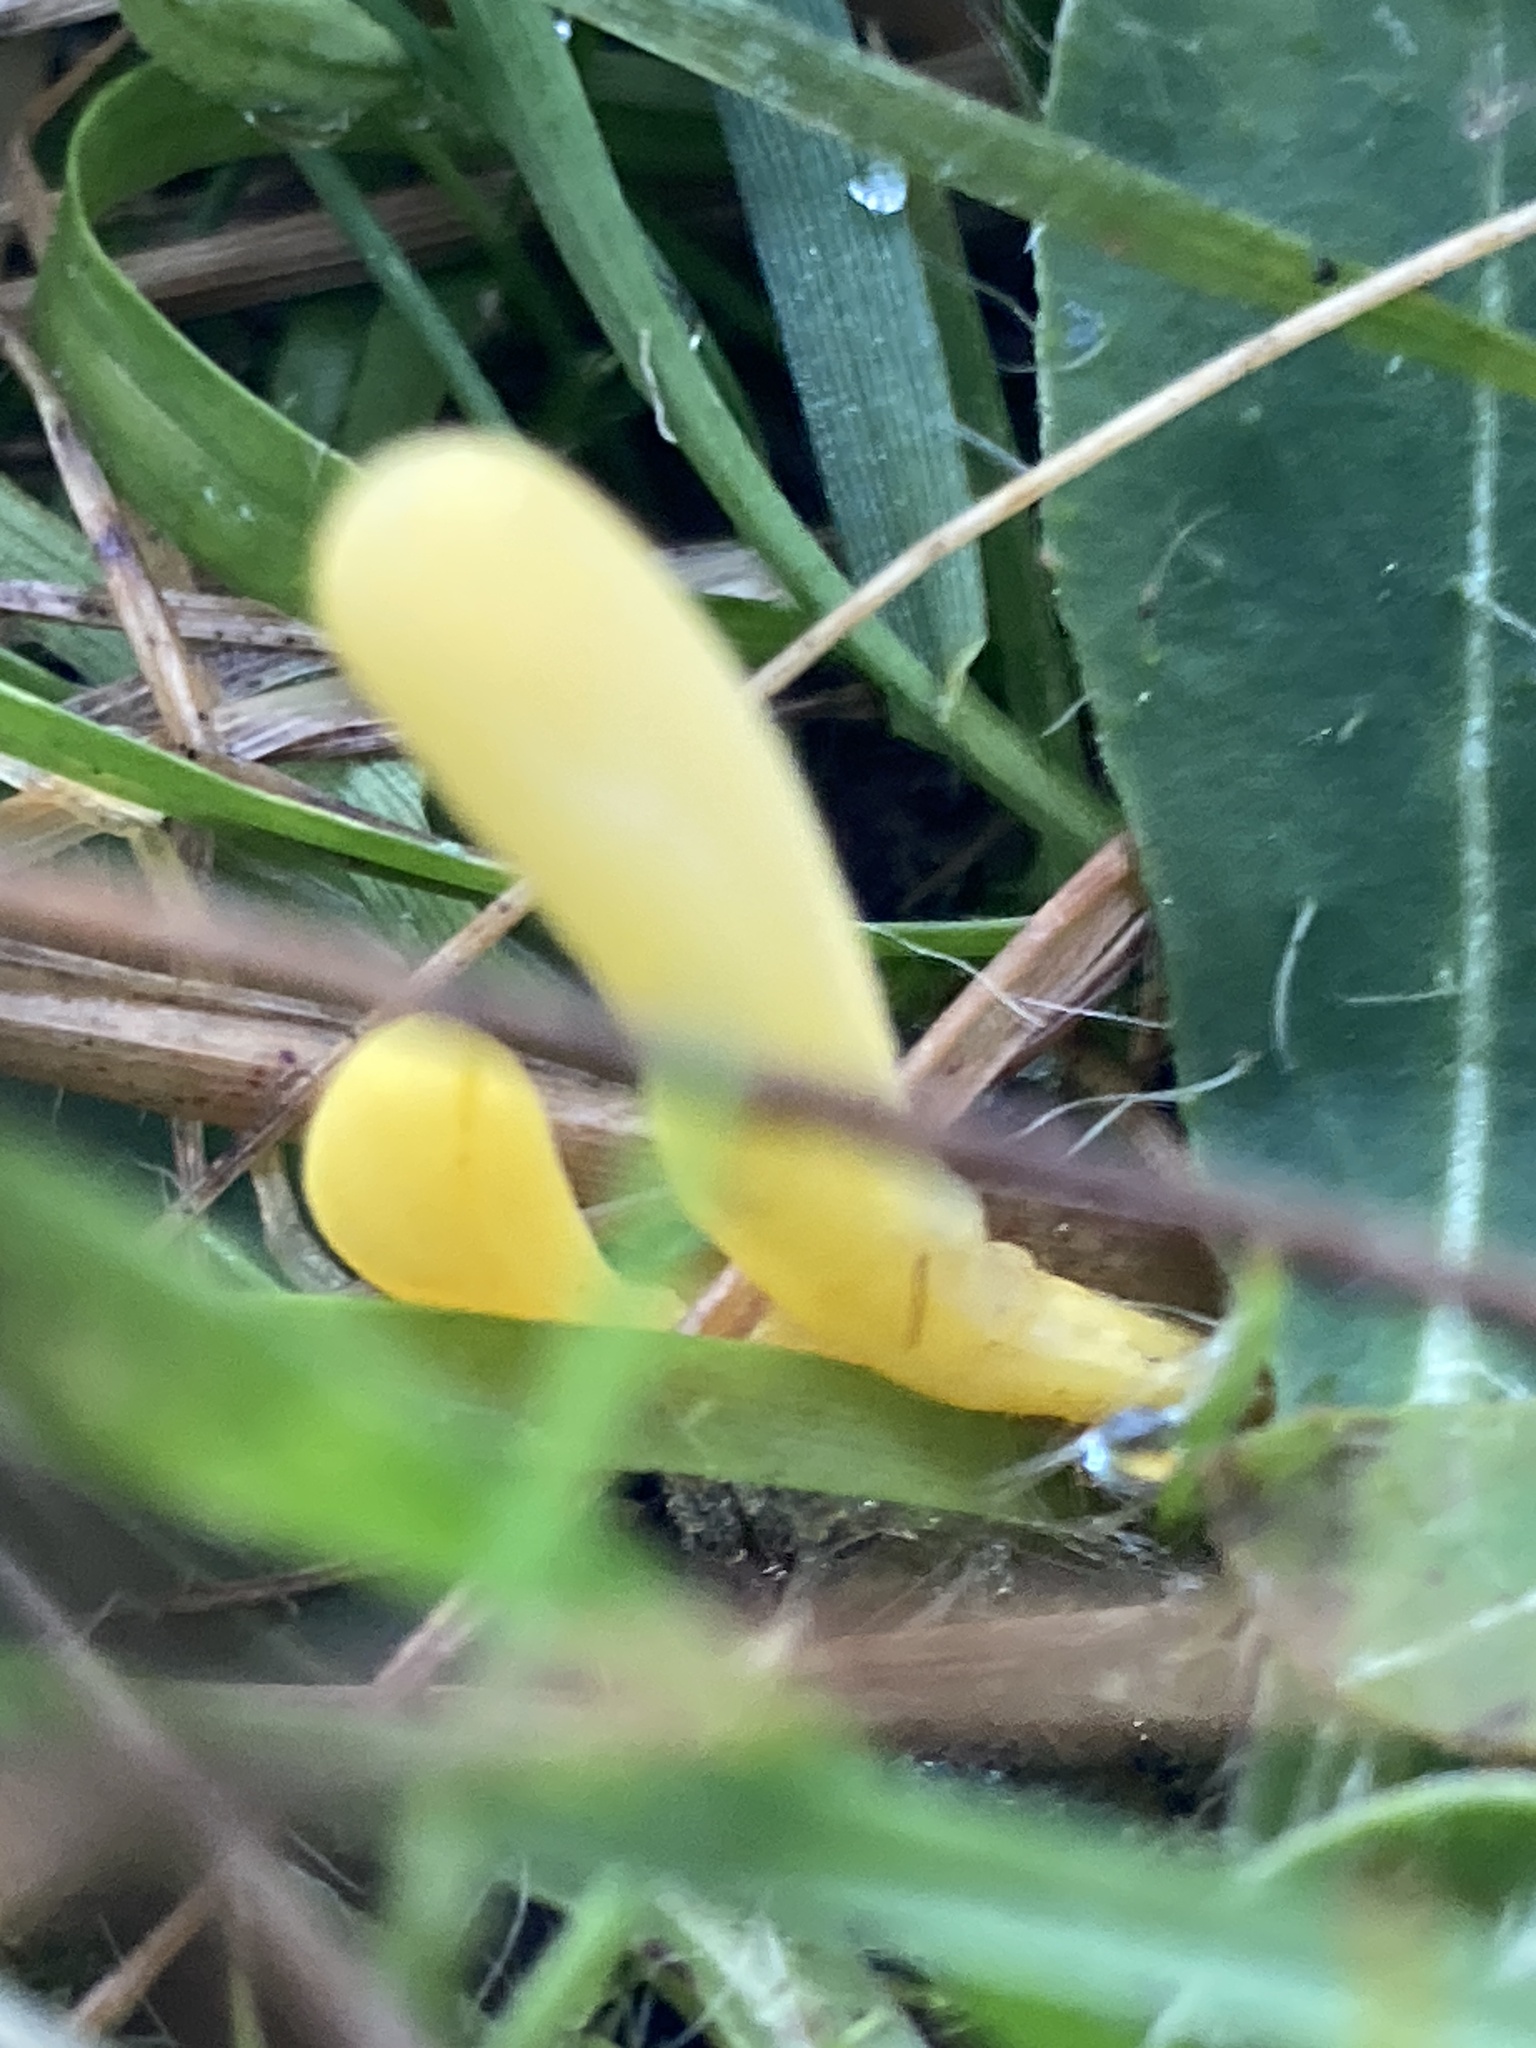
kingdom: Fungi
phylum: Basidiomycota
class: Agaricomycetes
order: Agaricales
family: Clavariaceae
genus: Clavulinopsis
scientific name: Clavulinopsis helvola
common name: Yellow club
